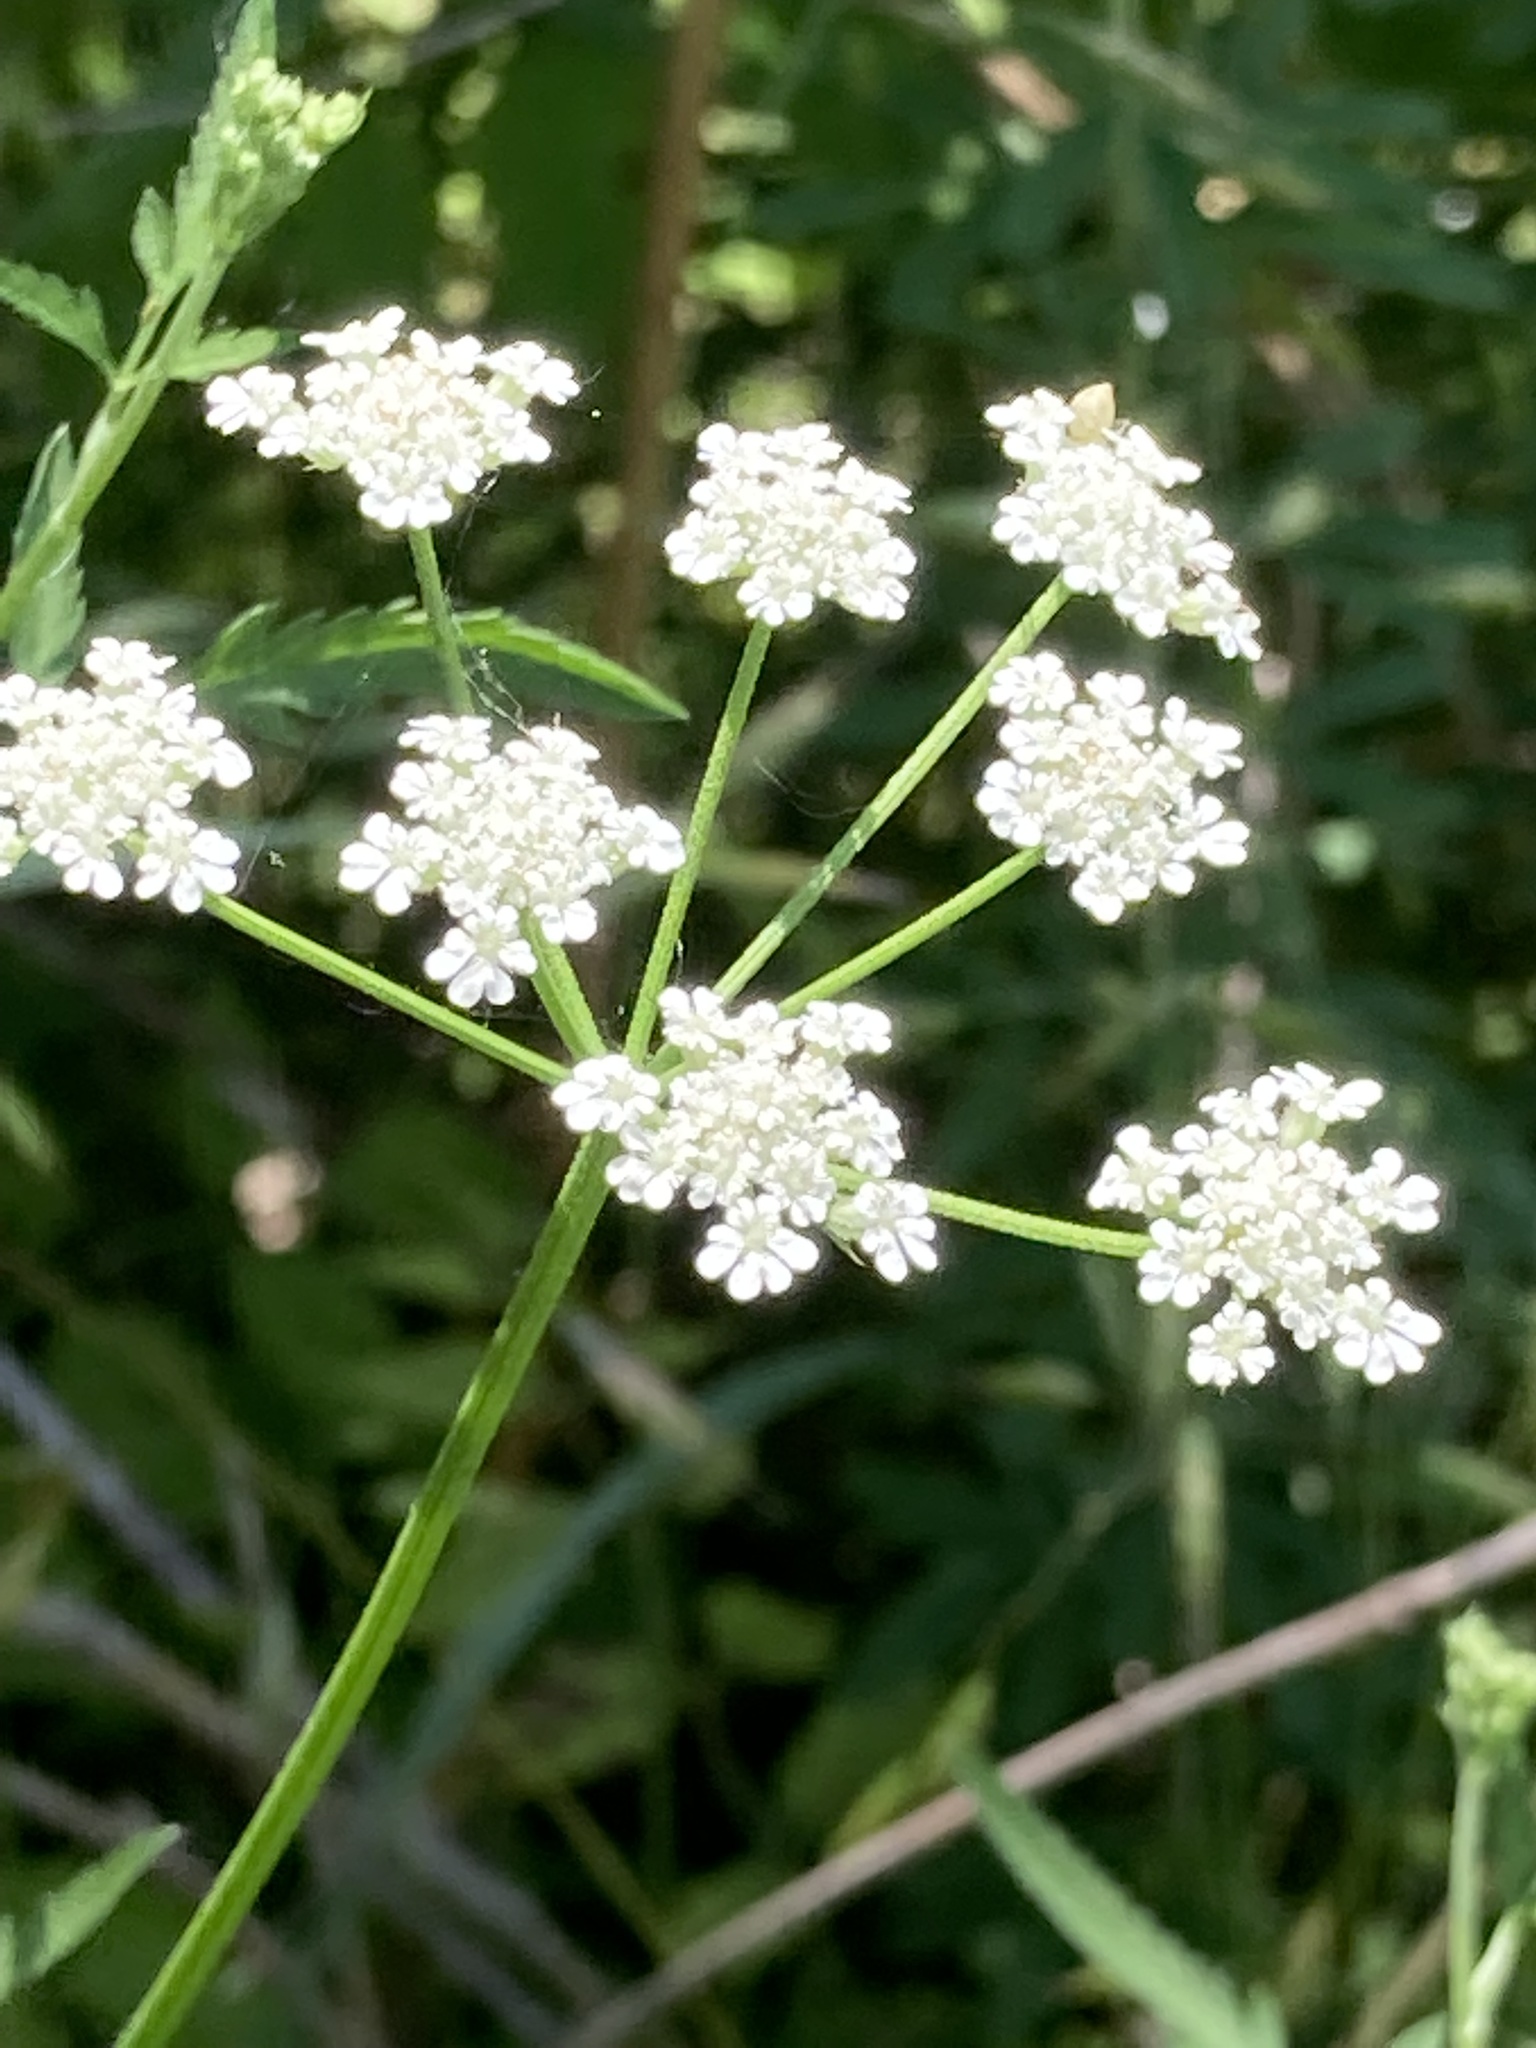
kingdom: Plantae
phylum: Tracheophyta
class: Magnoliopsida
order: Apiales
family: Apiaceae
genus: Torilis
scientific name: Torilis arvensis
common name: Spreading hedge-parsley
